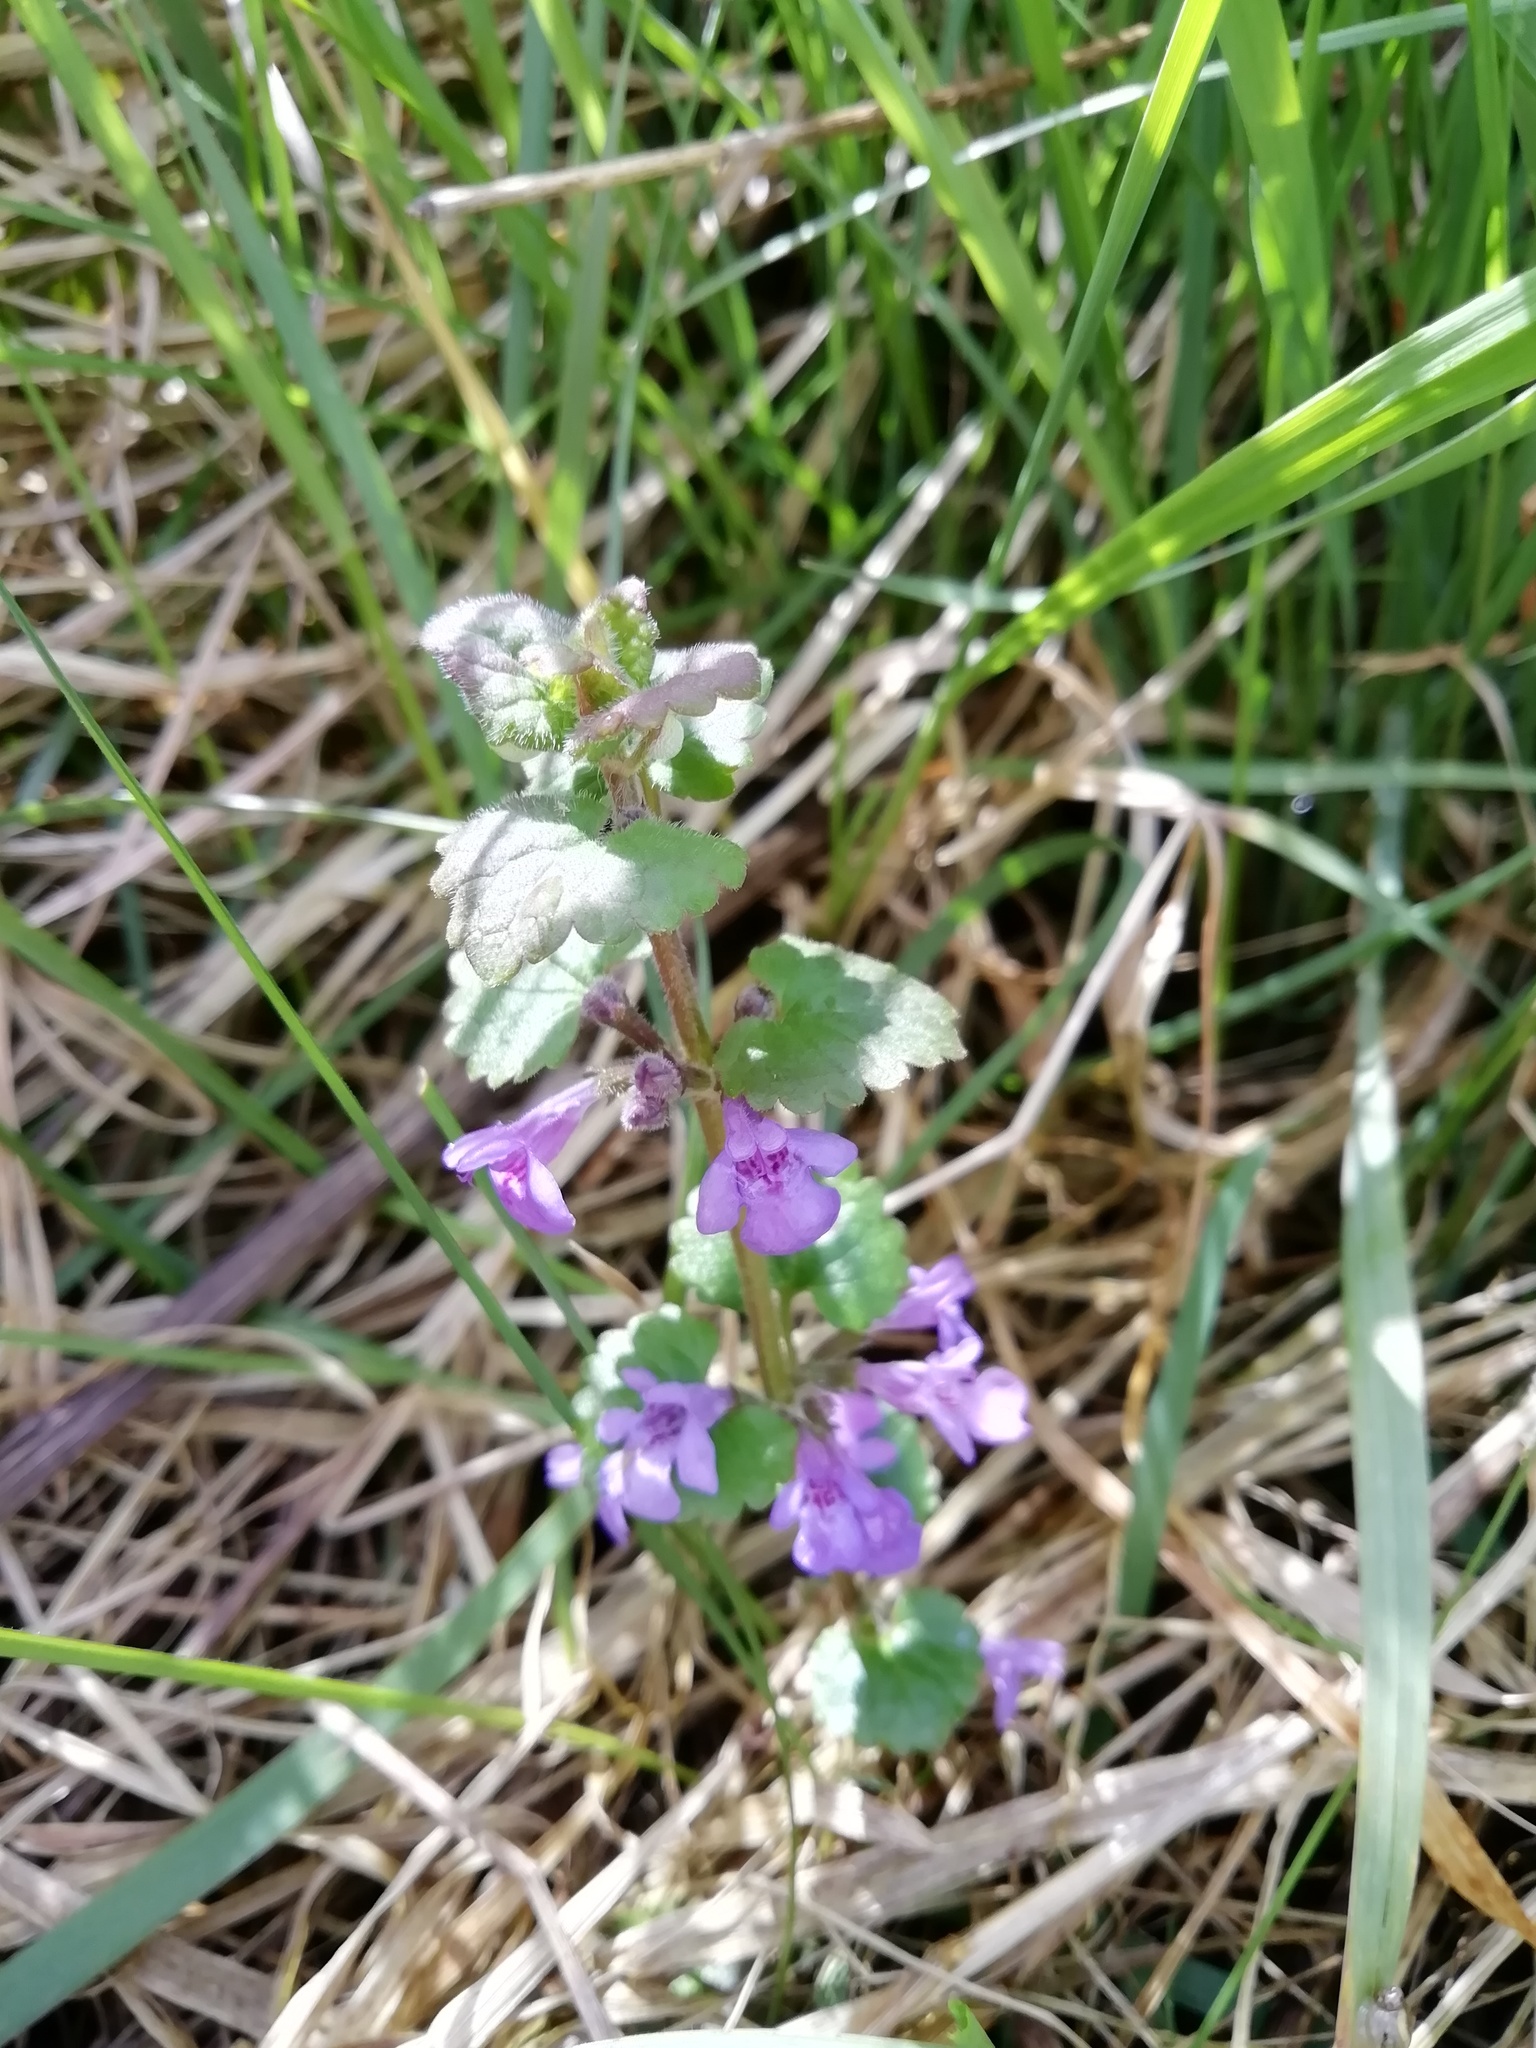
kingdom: Plantae
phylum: Tracheophyta
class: Magnoliopsida
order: Lamiales
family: Lamiaceae
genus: Glechoma
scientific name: Glechoma hederacea
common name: Ground ivy
